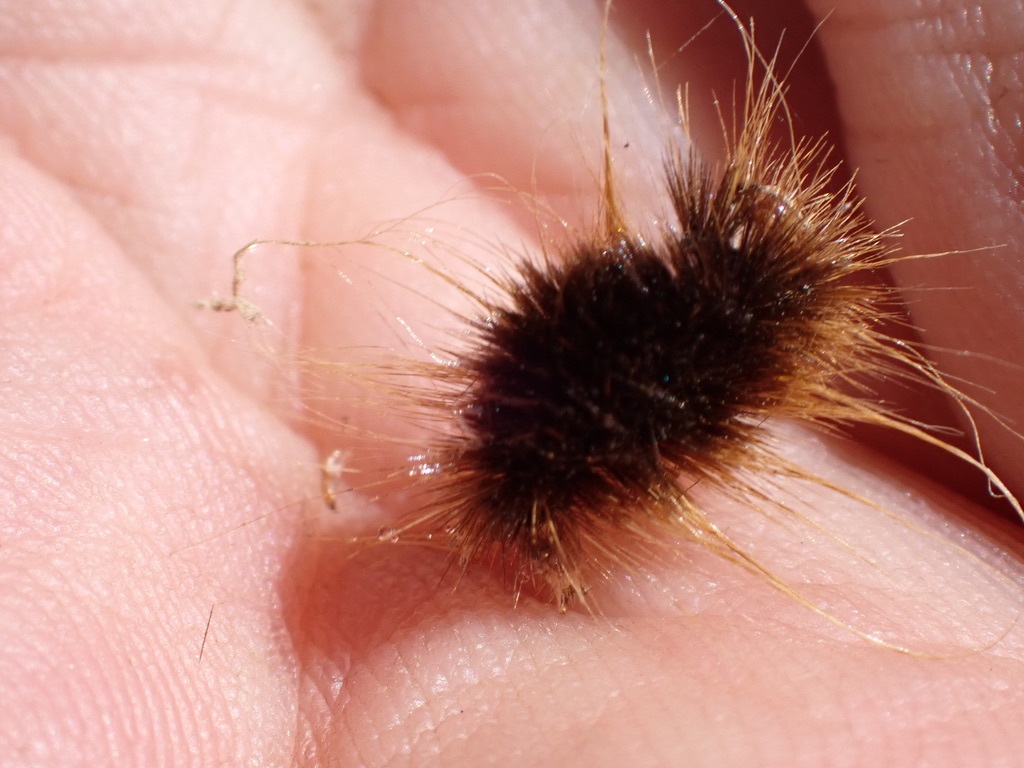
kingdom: Animalia
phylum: Arthropoda
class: Insecta
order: Lepidoptera
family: Erebidae
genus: Hemihyalea
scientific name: Hemihyalea edwardsii
